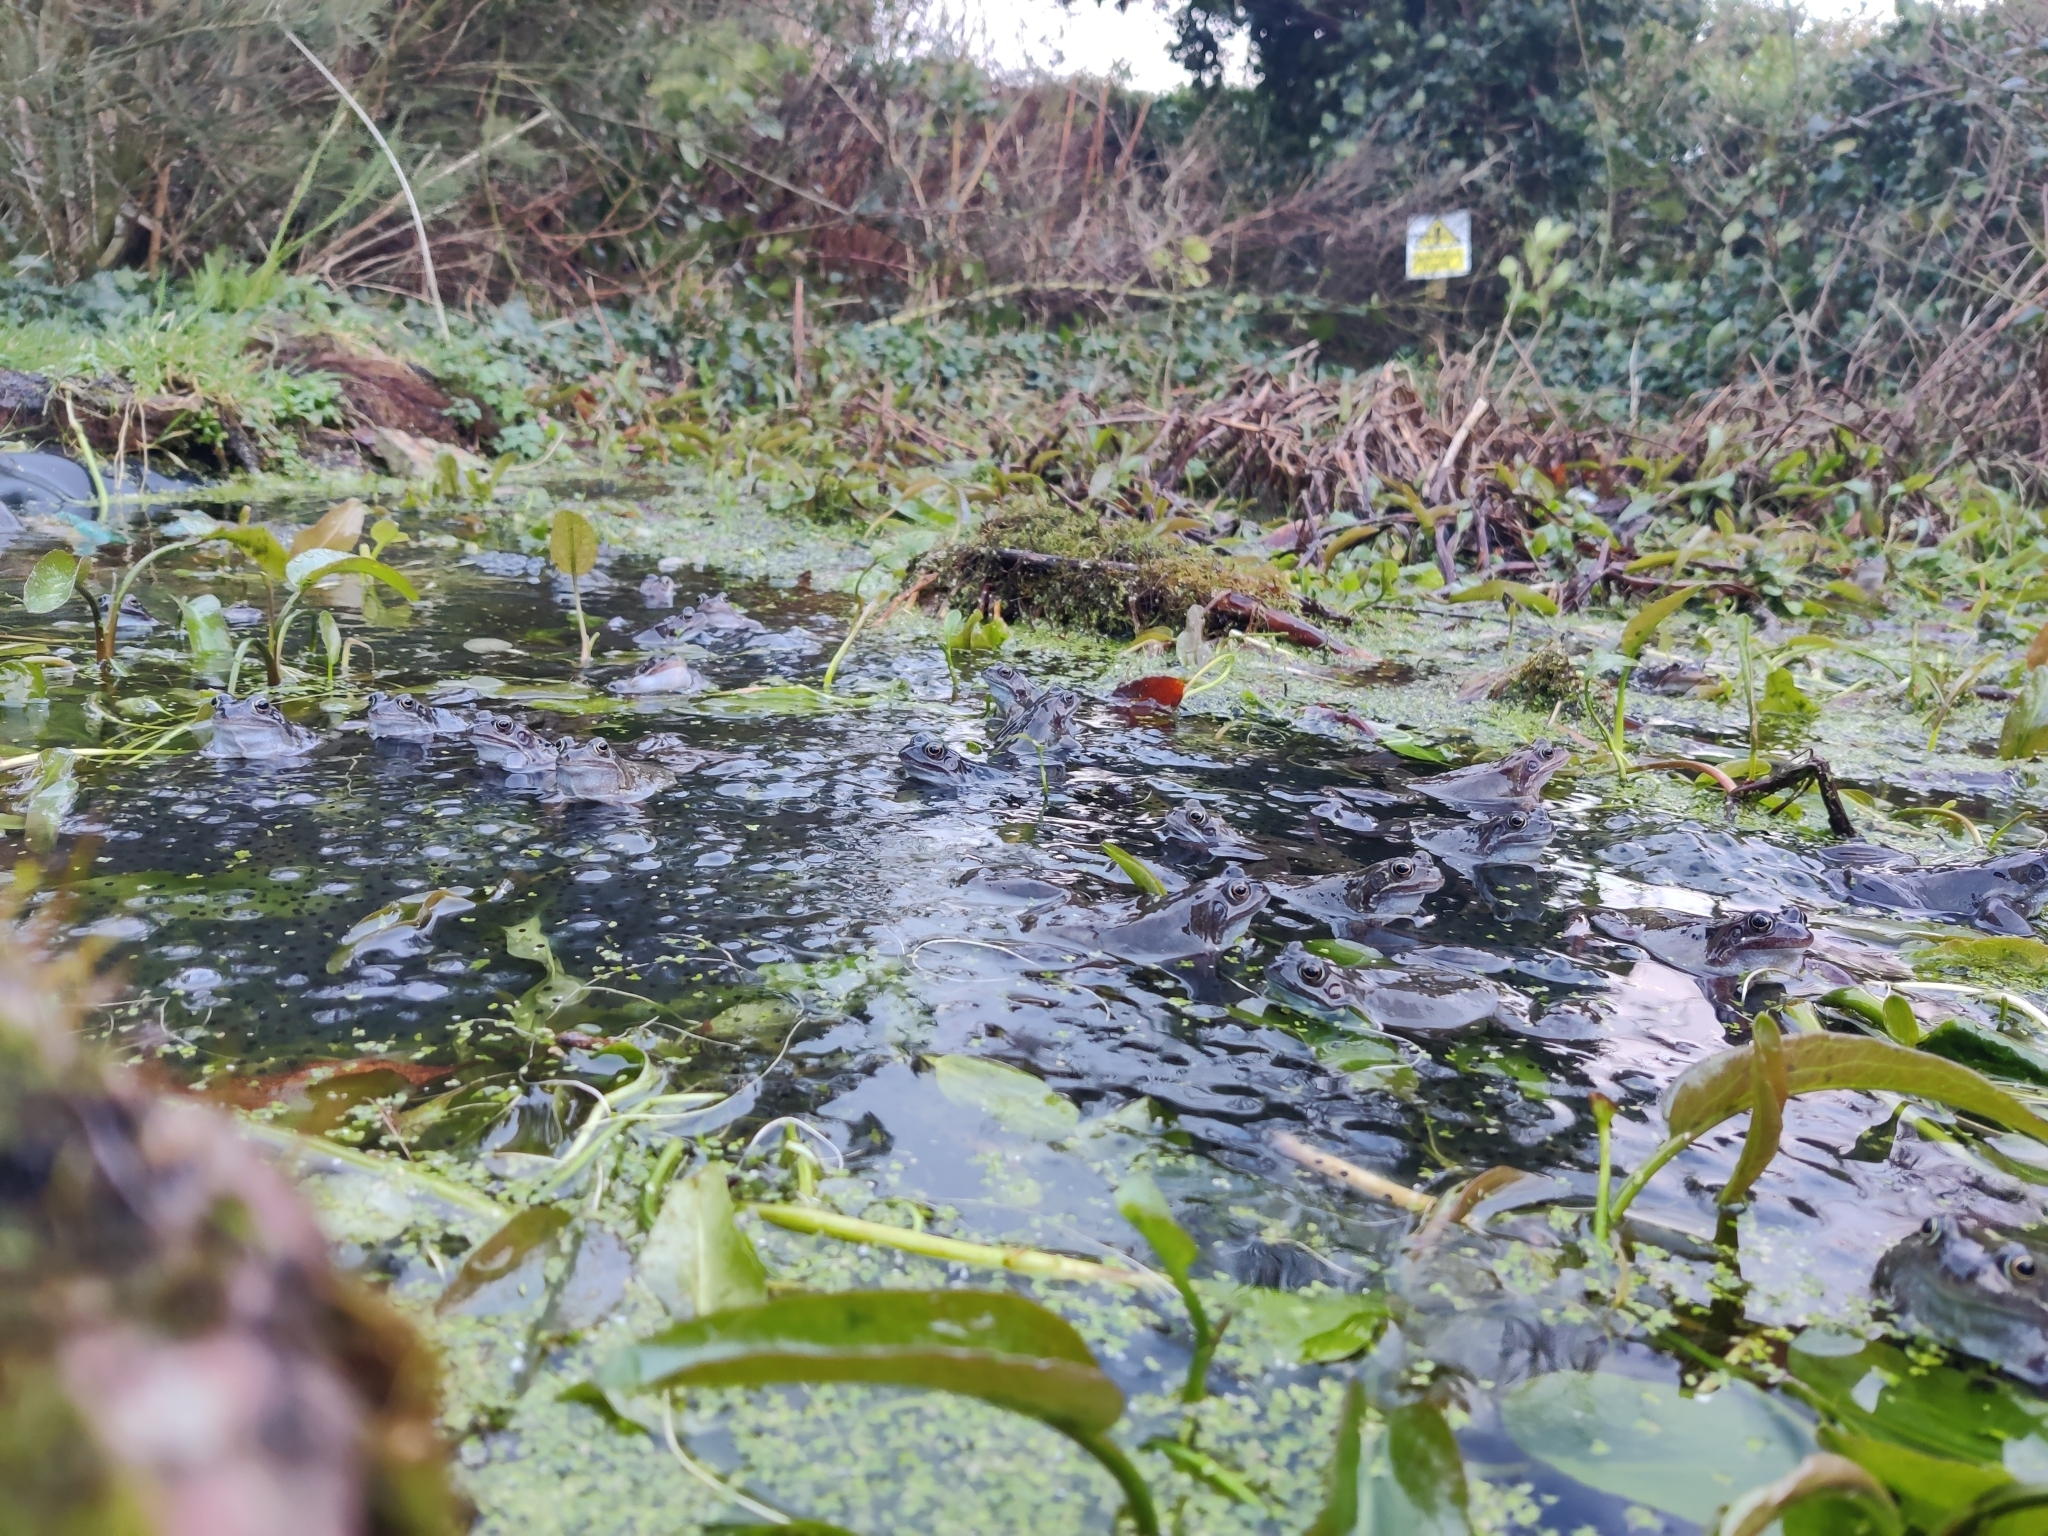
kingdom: Animalia
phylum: Chordata
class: Amphibia
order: Anura
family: Ranidae
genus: Rana
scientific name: Rana temporaria
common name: Common frog
